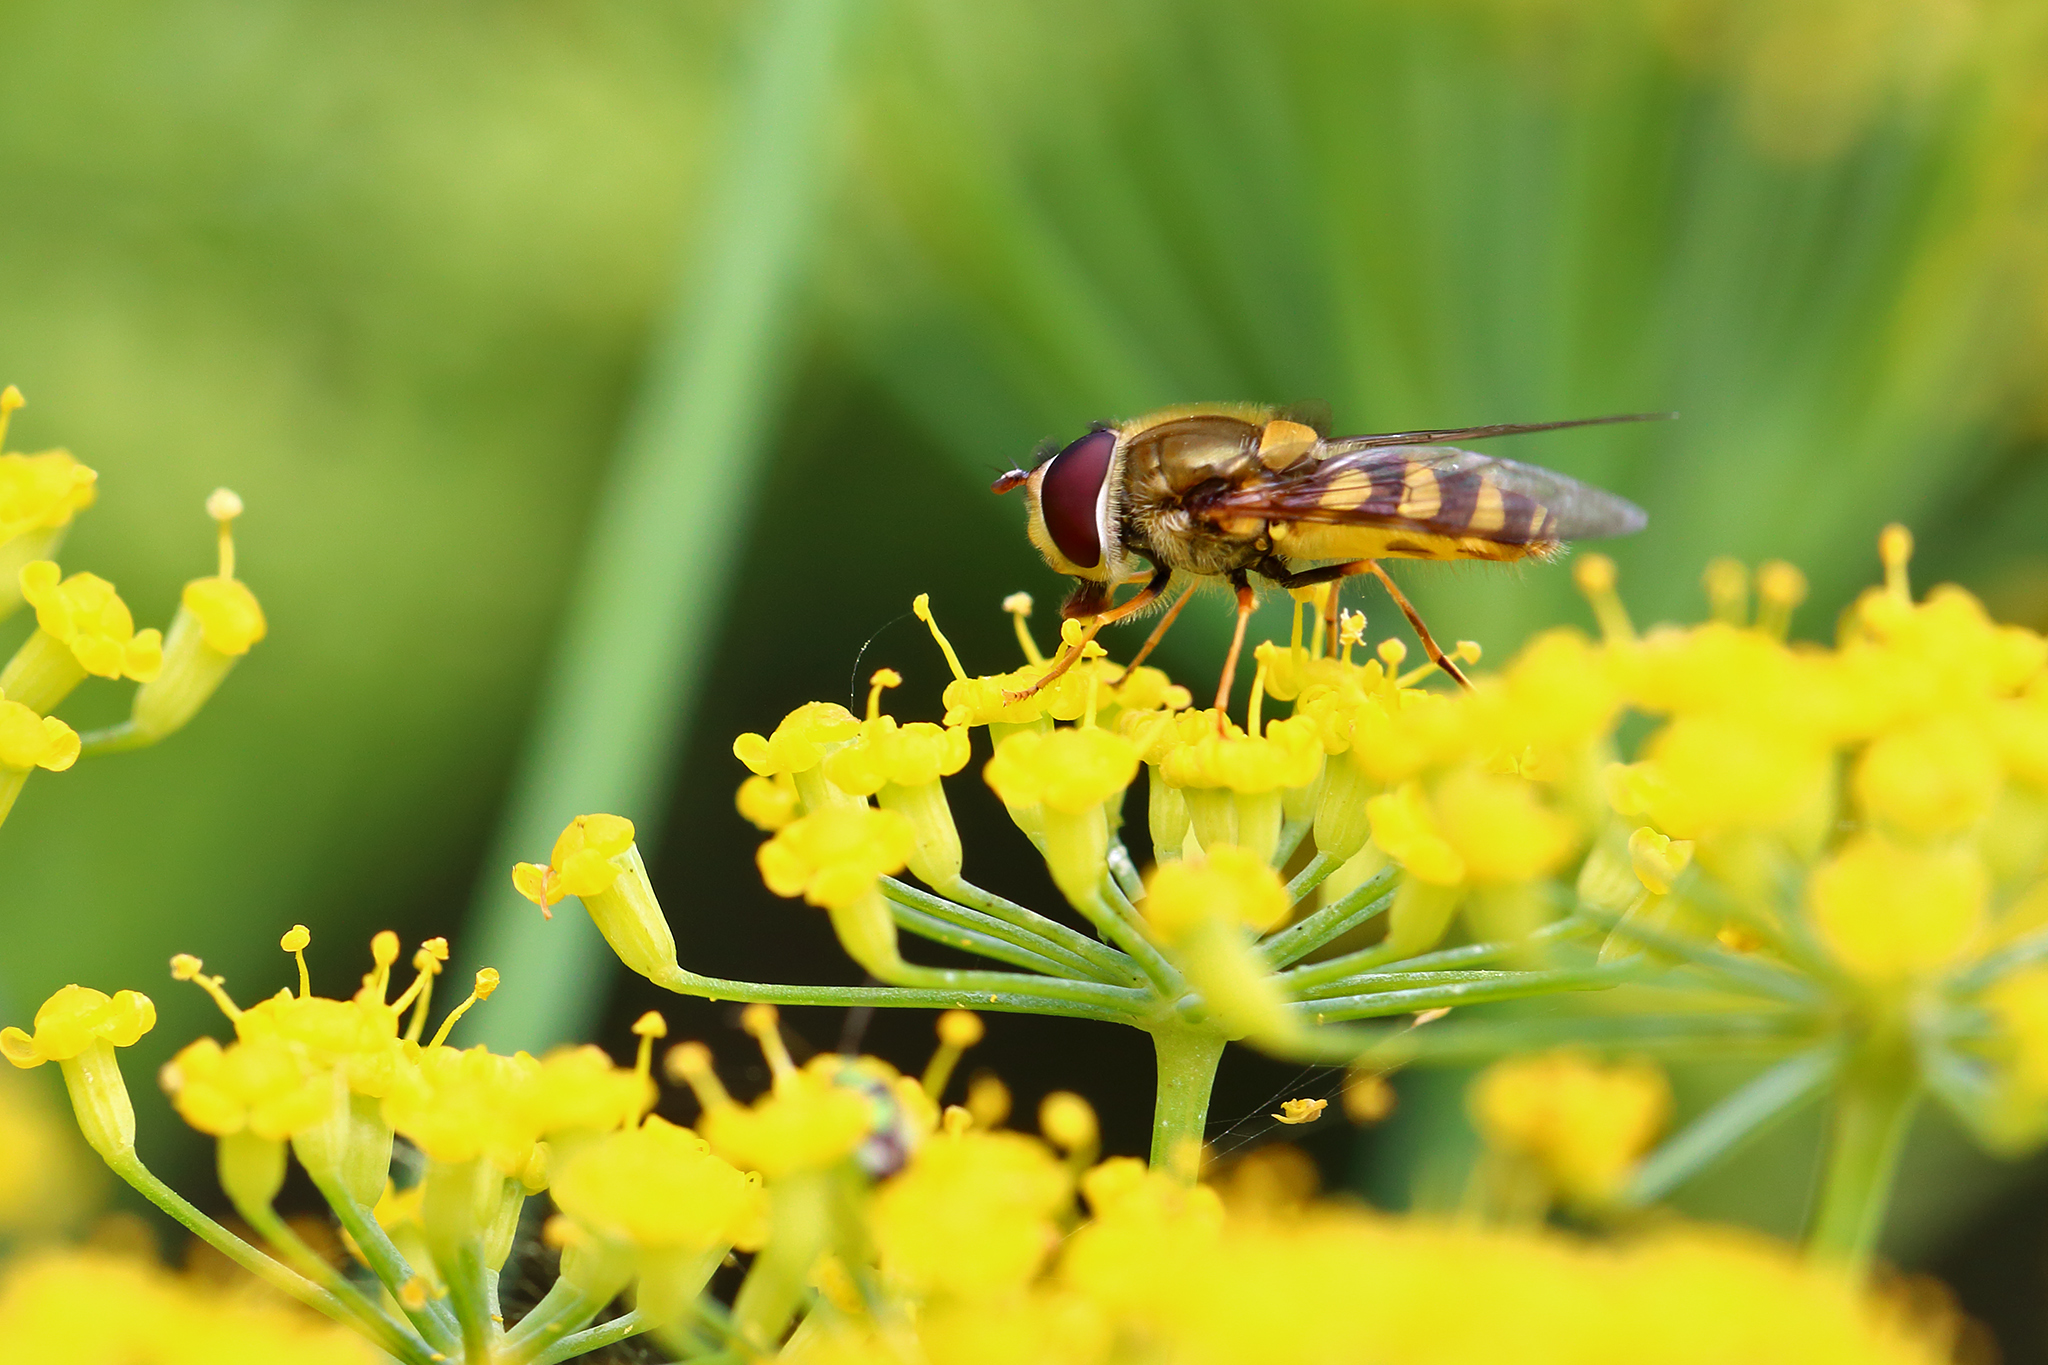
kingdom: Animalia
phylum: Arthropoda
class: Insecta
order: Diptera
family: Syrphidae
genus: Syrphus
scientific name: Syrphus
